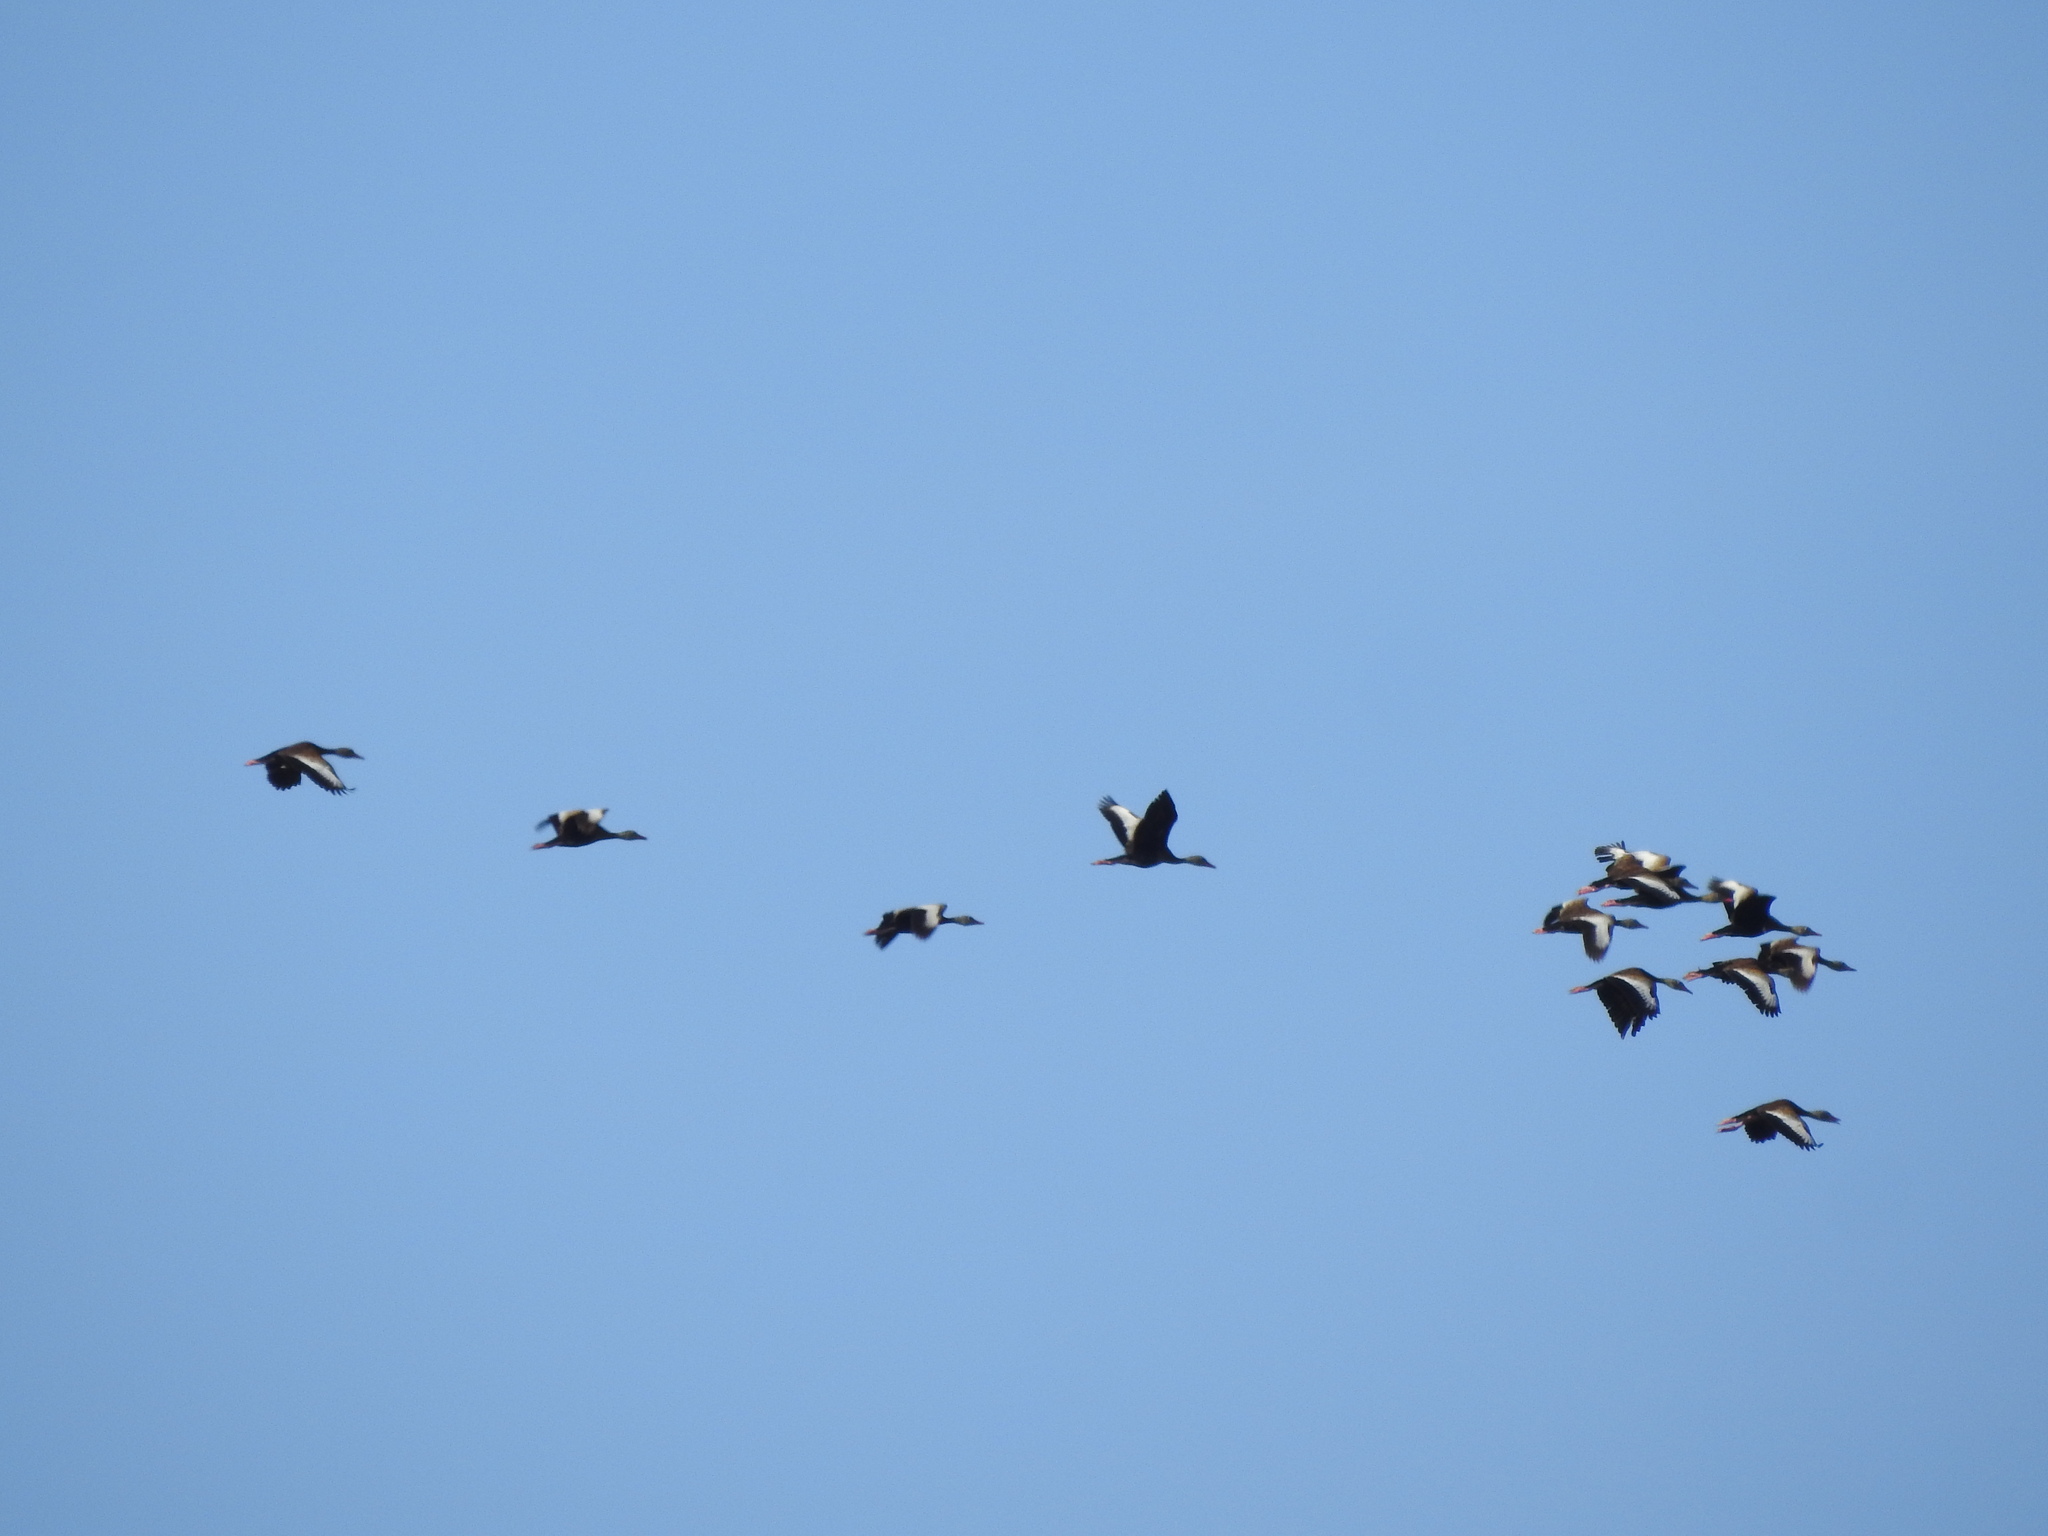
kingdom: Animalia
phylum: Chordata
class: Aves
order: Anseriformes
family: Anatidae
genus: Dendrocygna
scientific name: Dendrocygna autumnalis
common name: Black-bellied whistling duck
